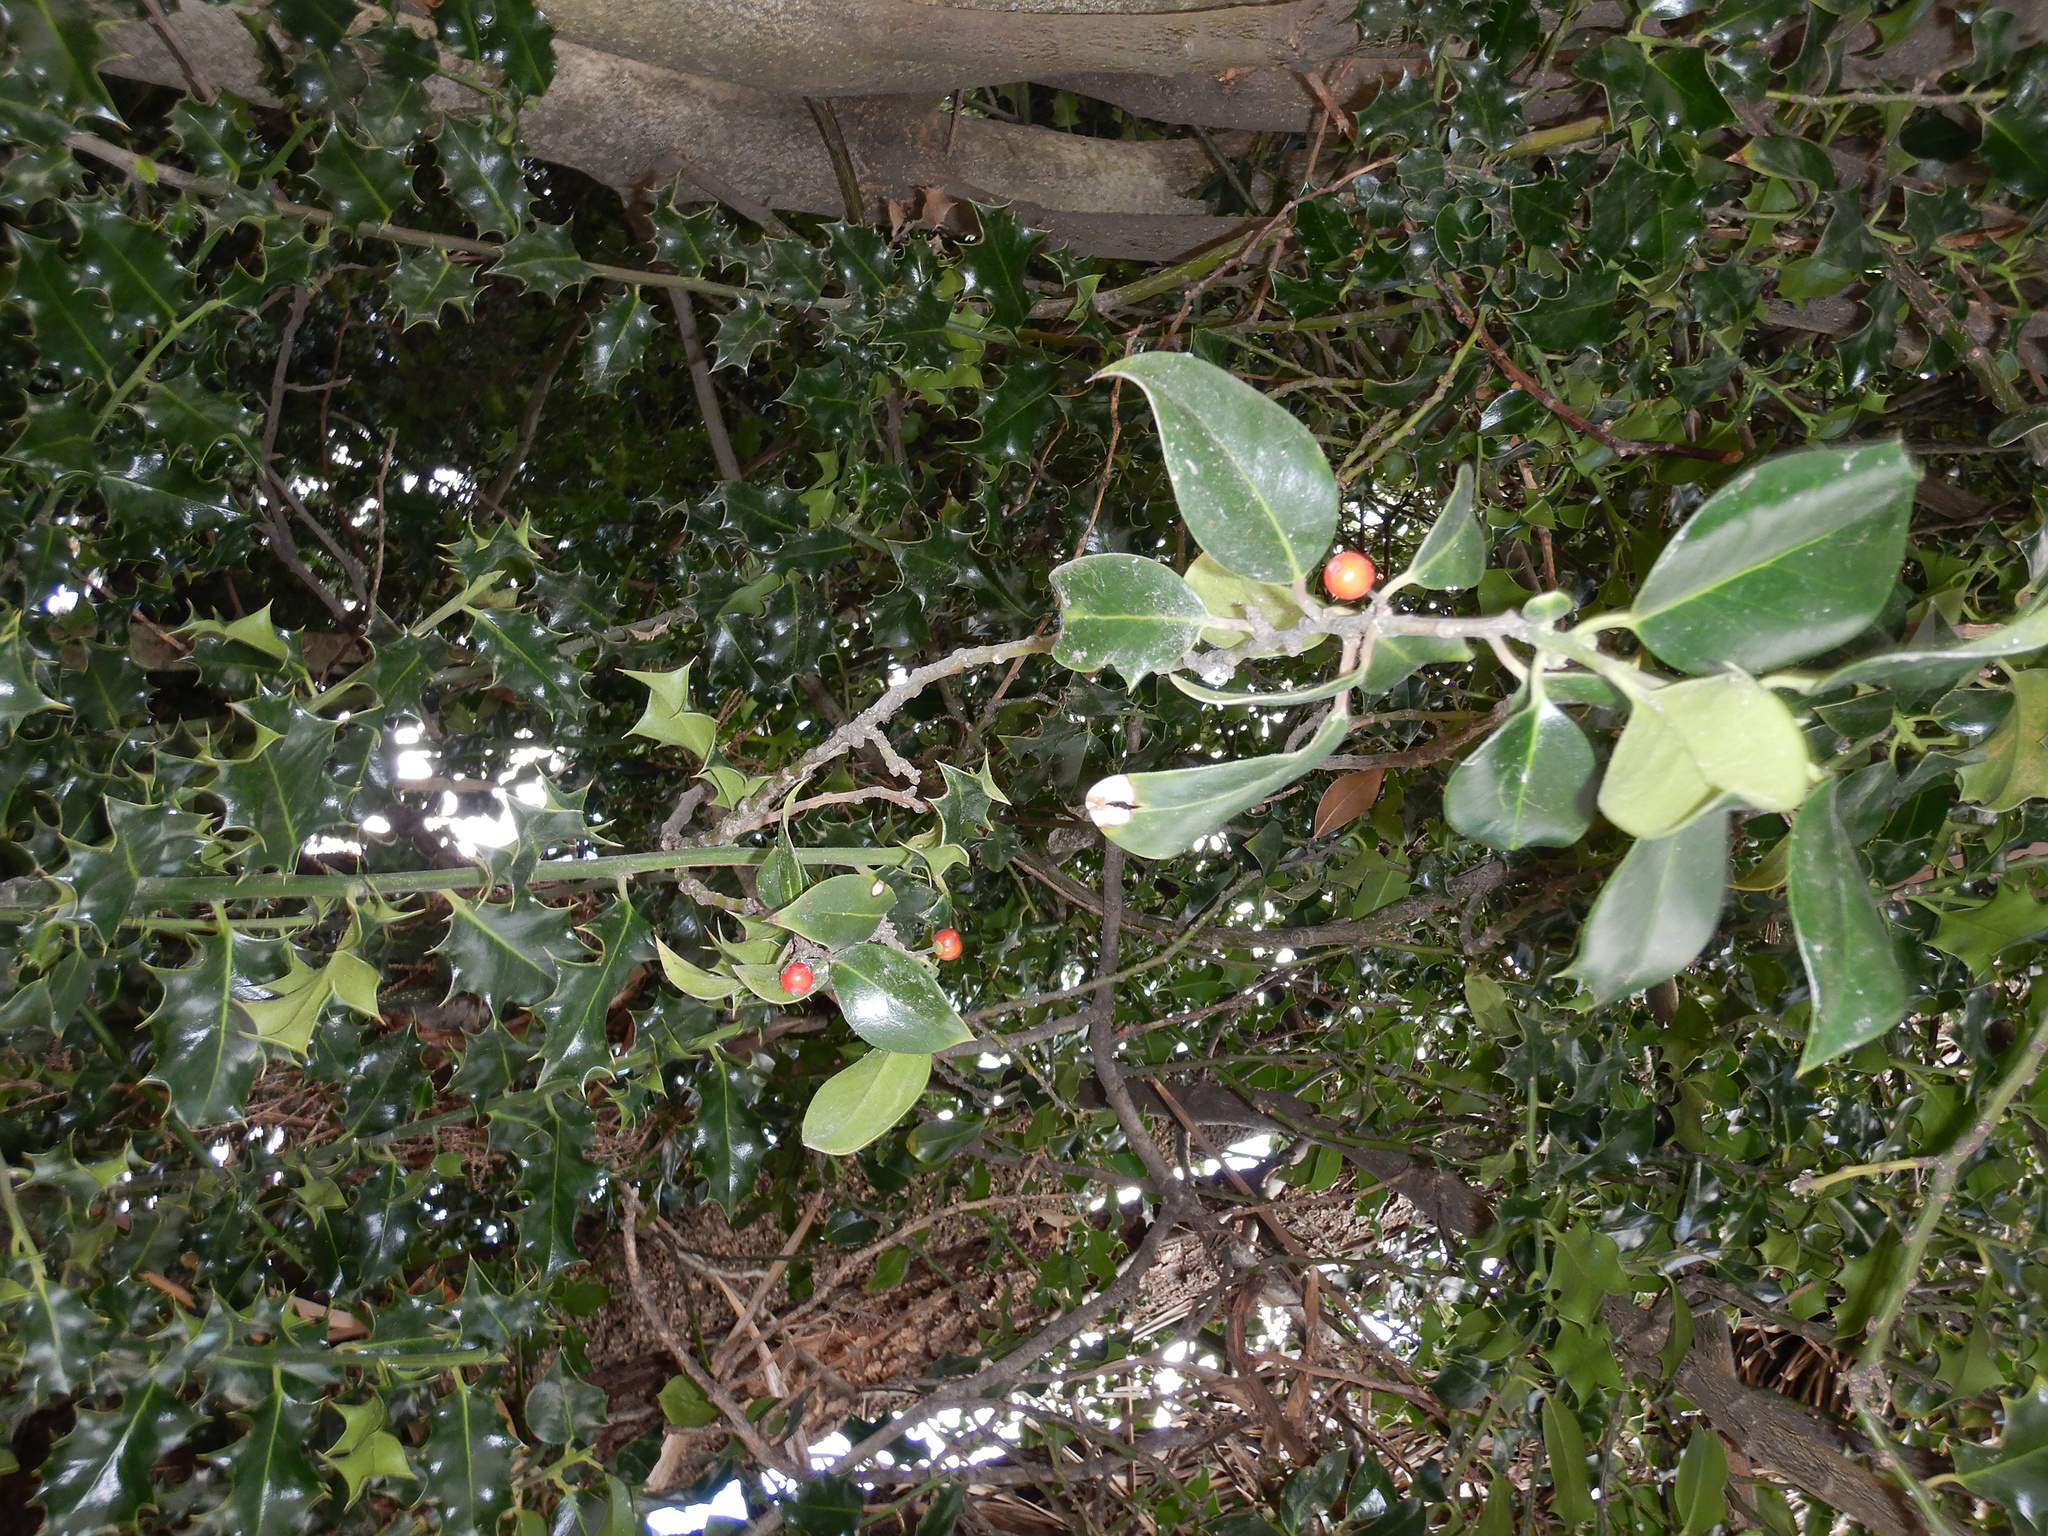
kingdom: Plantae
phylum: Tracheophyta
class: Magnoliopsida
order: Aquifoliales
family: Aquifoliaceae
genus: Ilex
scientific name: Ilex aquifolium
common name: English holly
